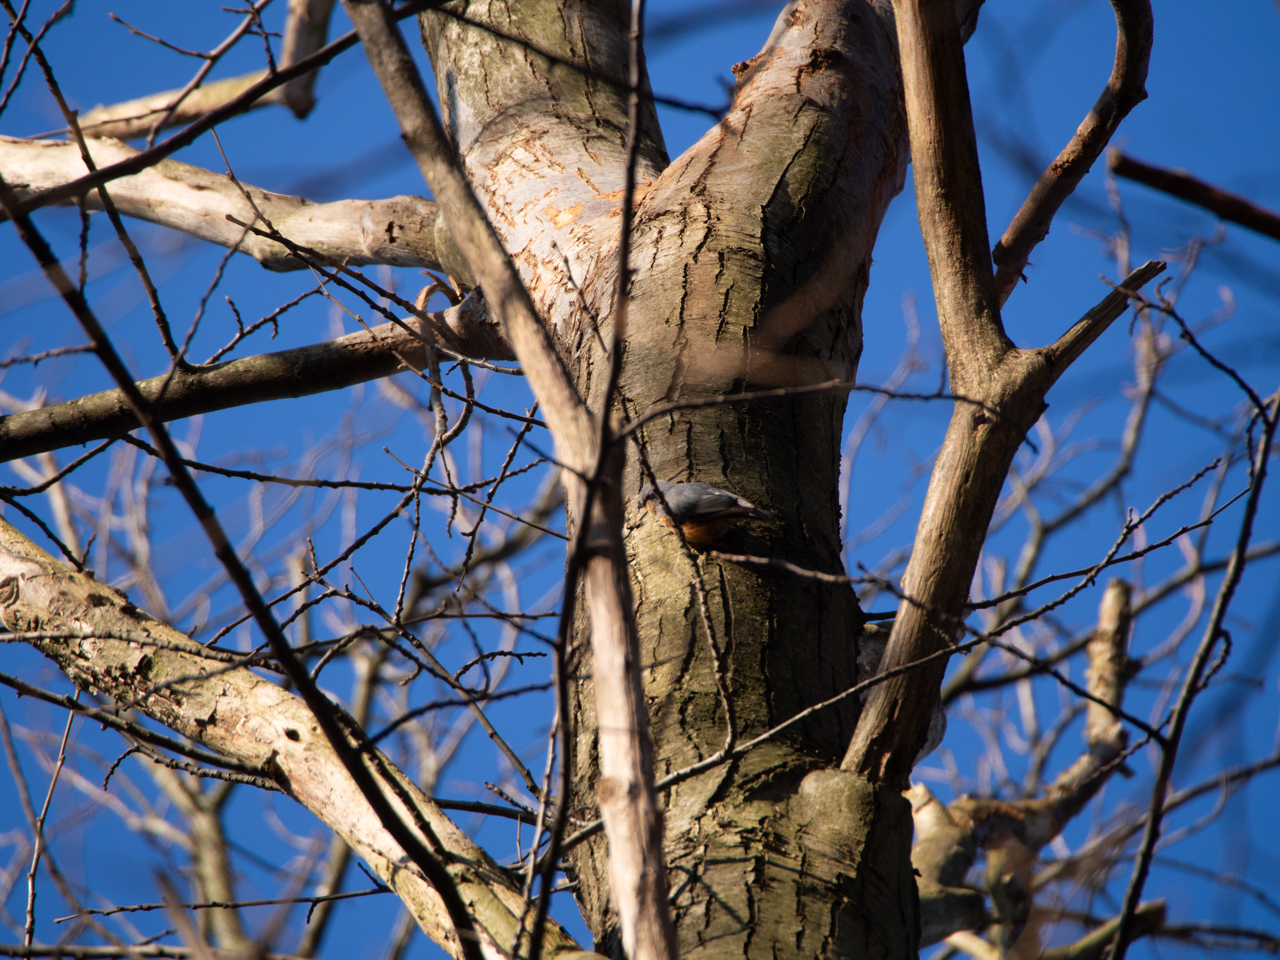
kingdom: Animalia
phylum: Chordata
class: Aves
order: Passeriformes
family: Sittidae
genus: Sitta
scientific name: Sitta europaea
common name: Eurasian nuthatch
